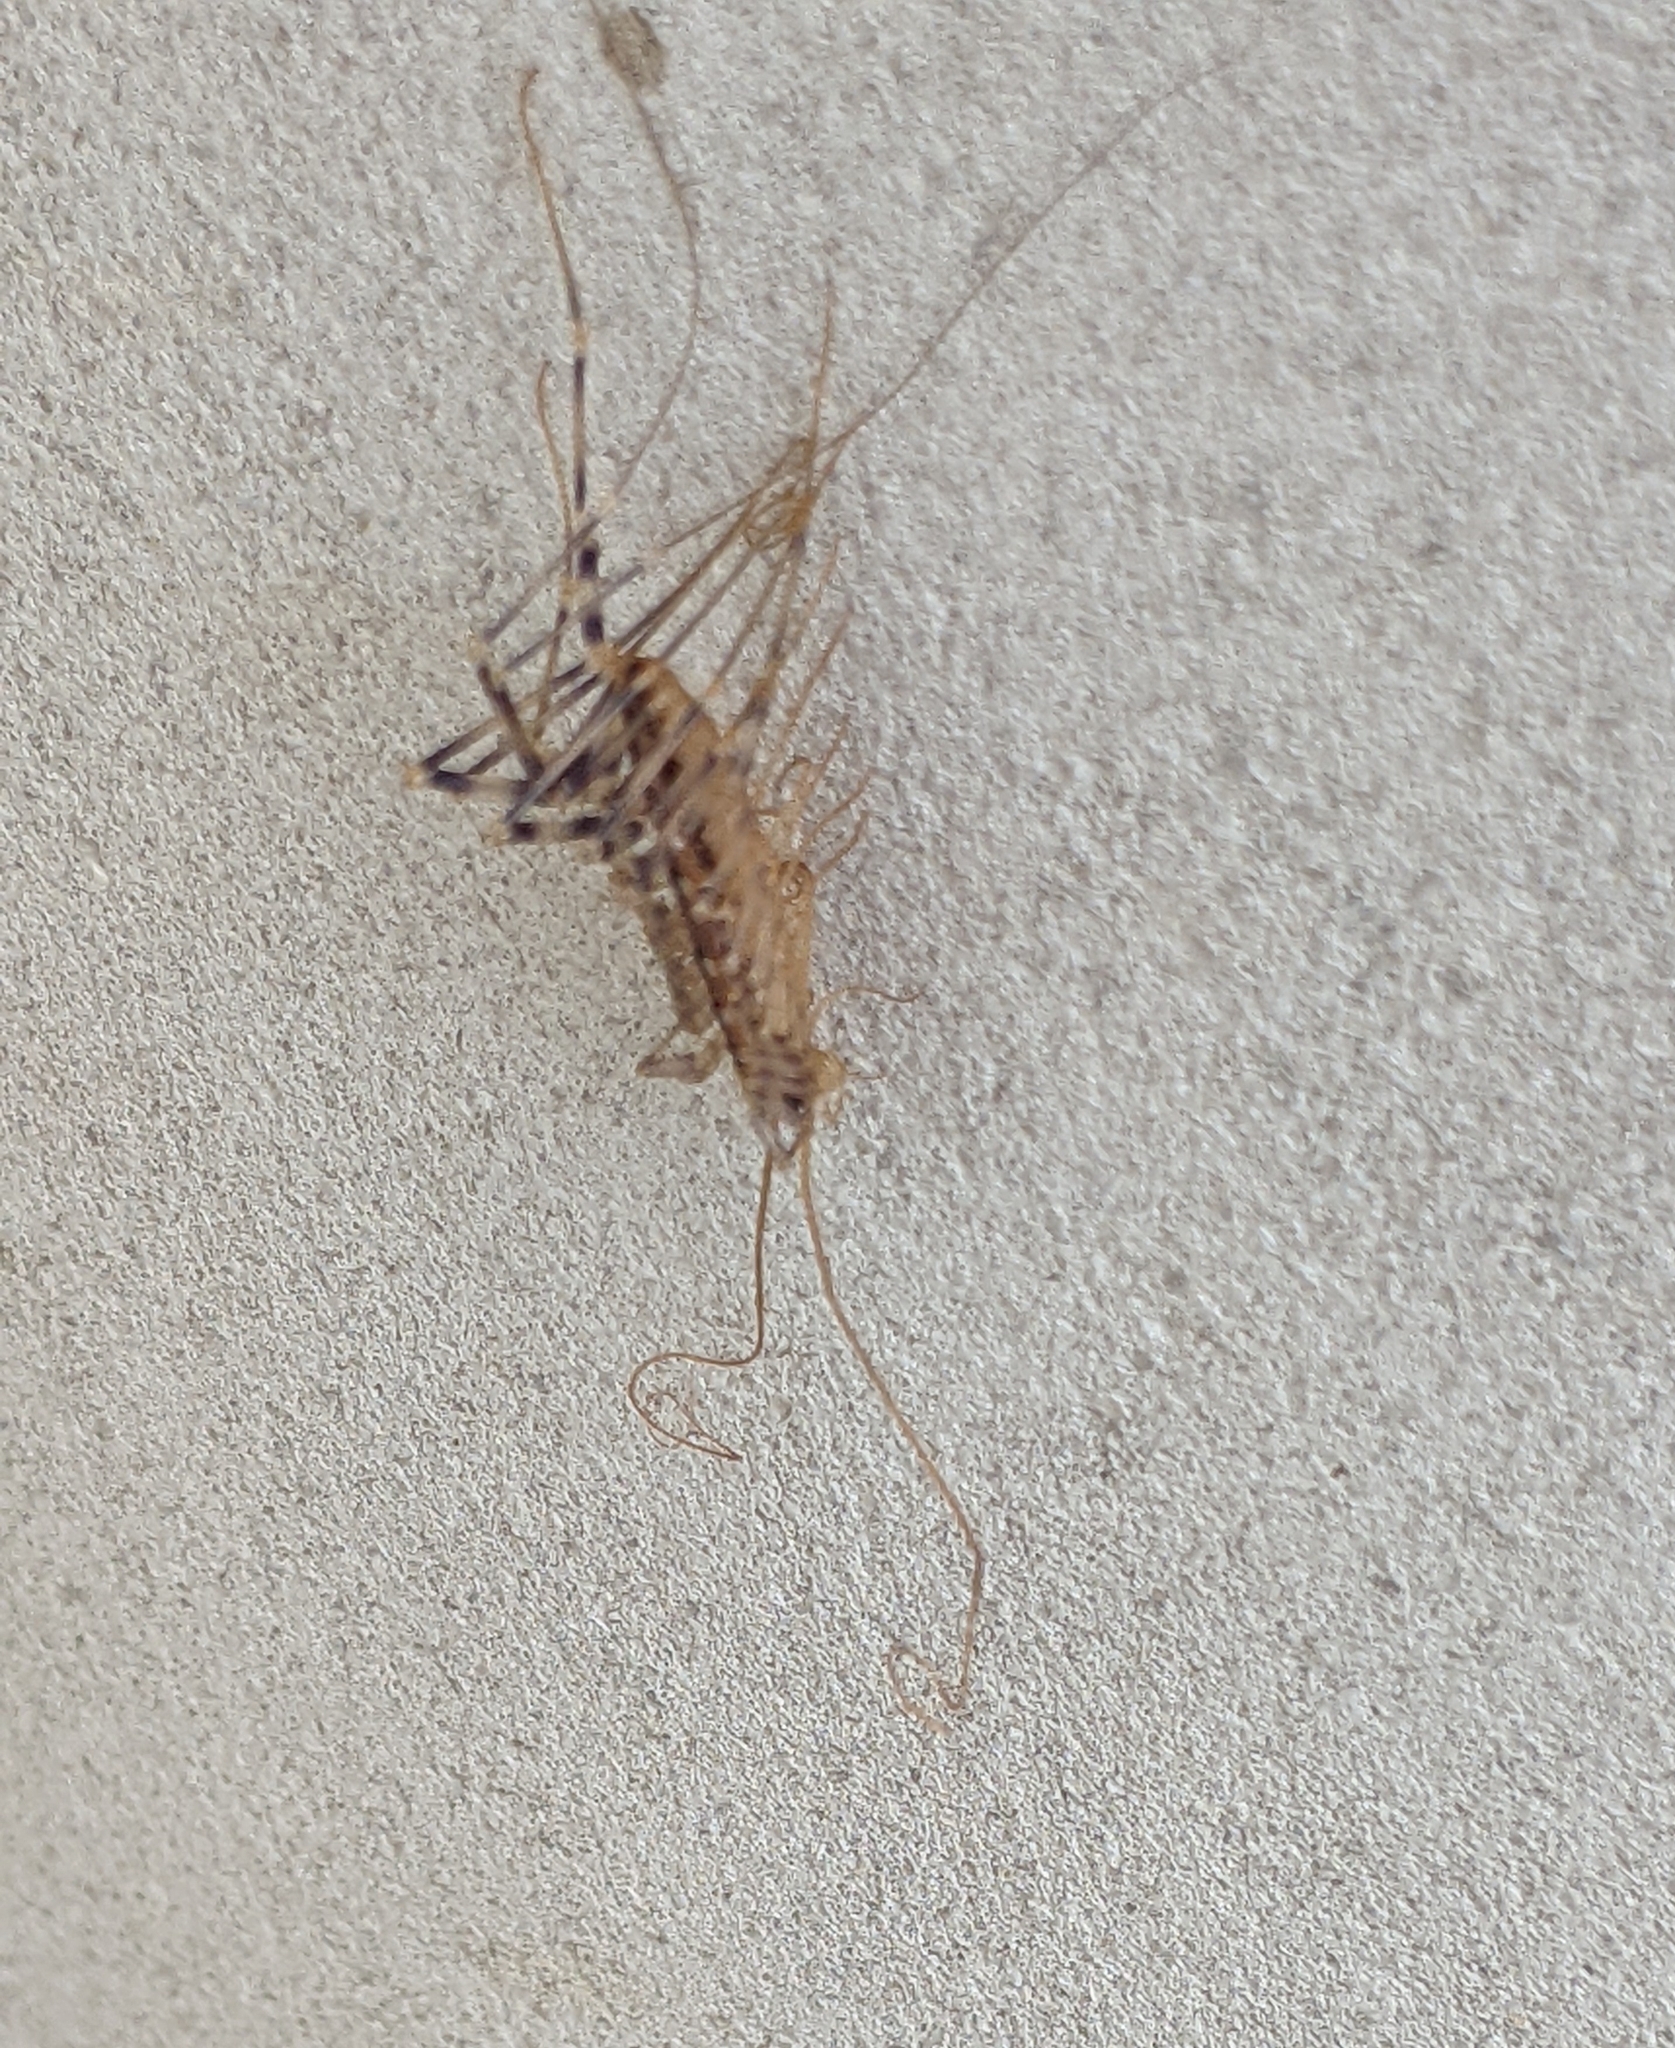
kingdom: Animalia
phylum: Arthropoda
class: Chilopoda
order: Scutigeromorpha
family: Scutigeridae
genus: Scutigera
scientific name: Scutigera coleoptrata
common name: House centipede
